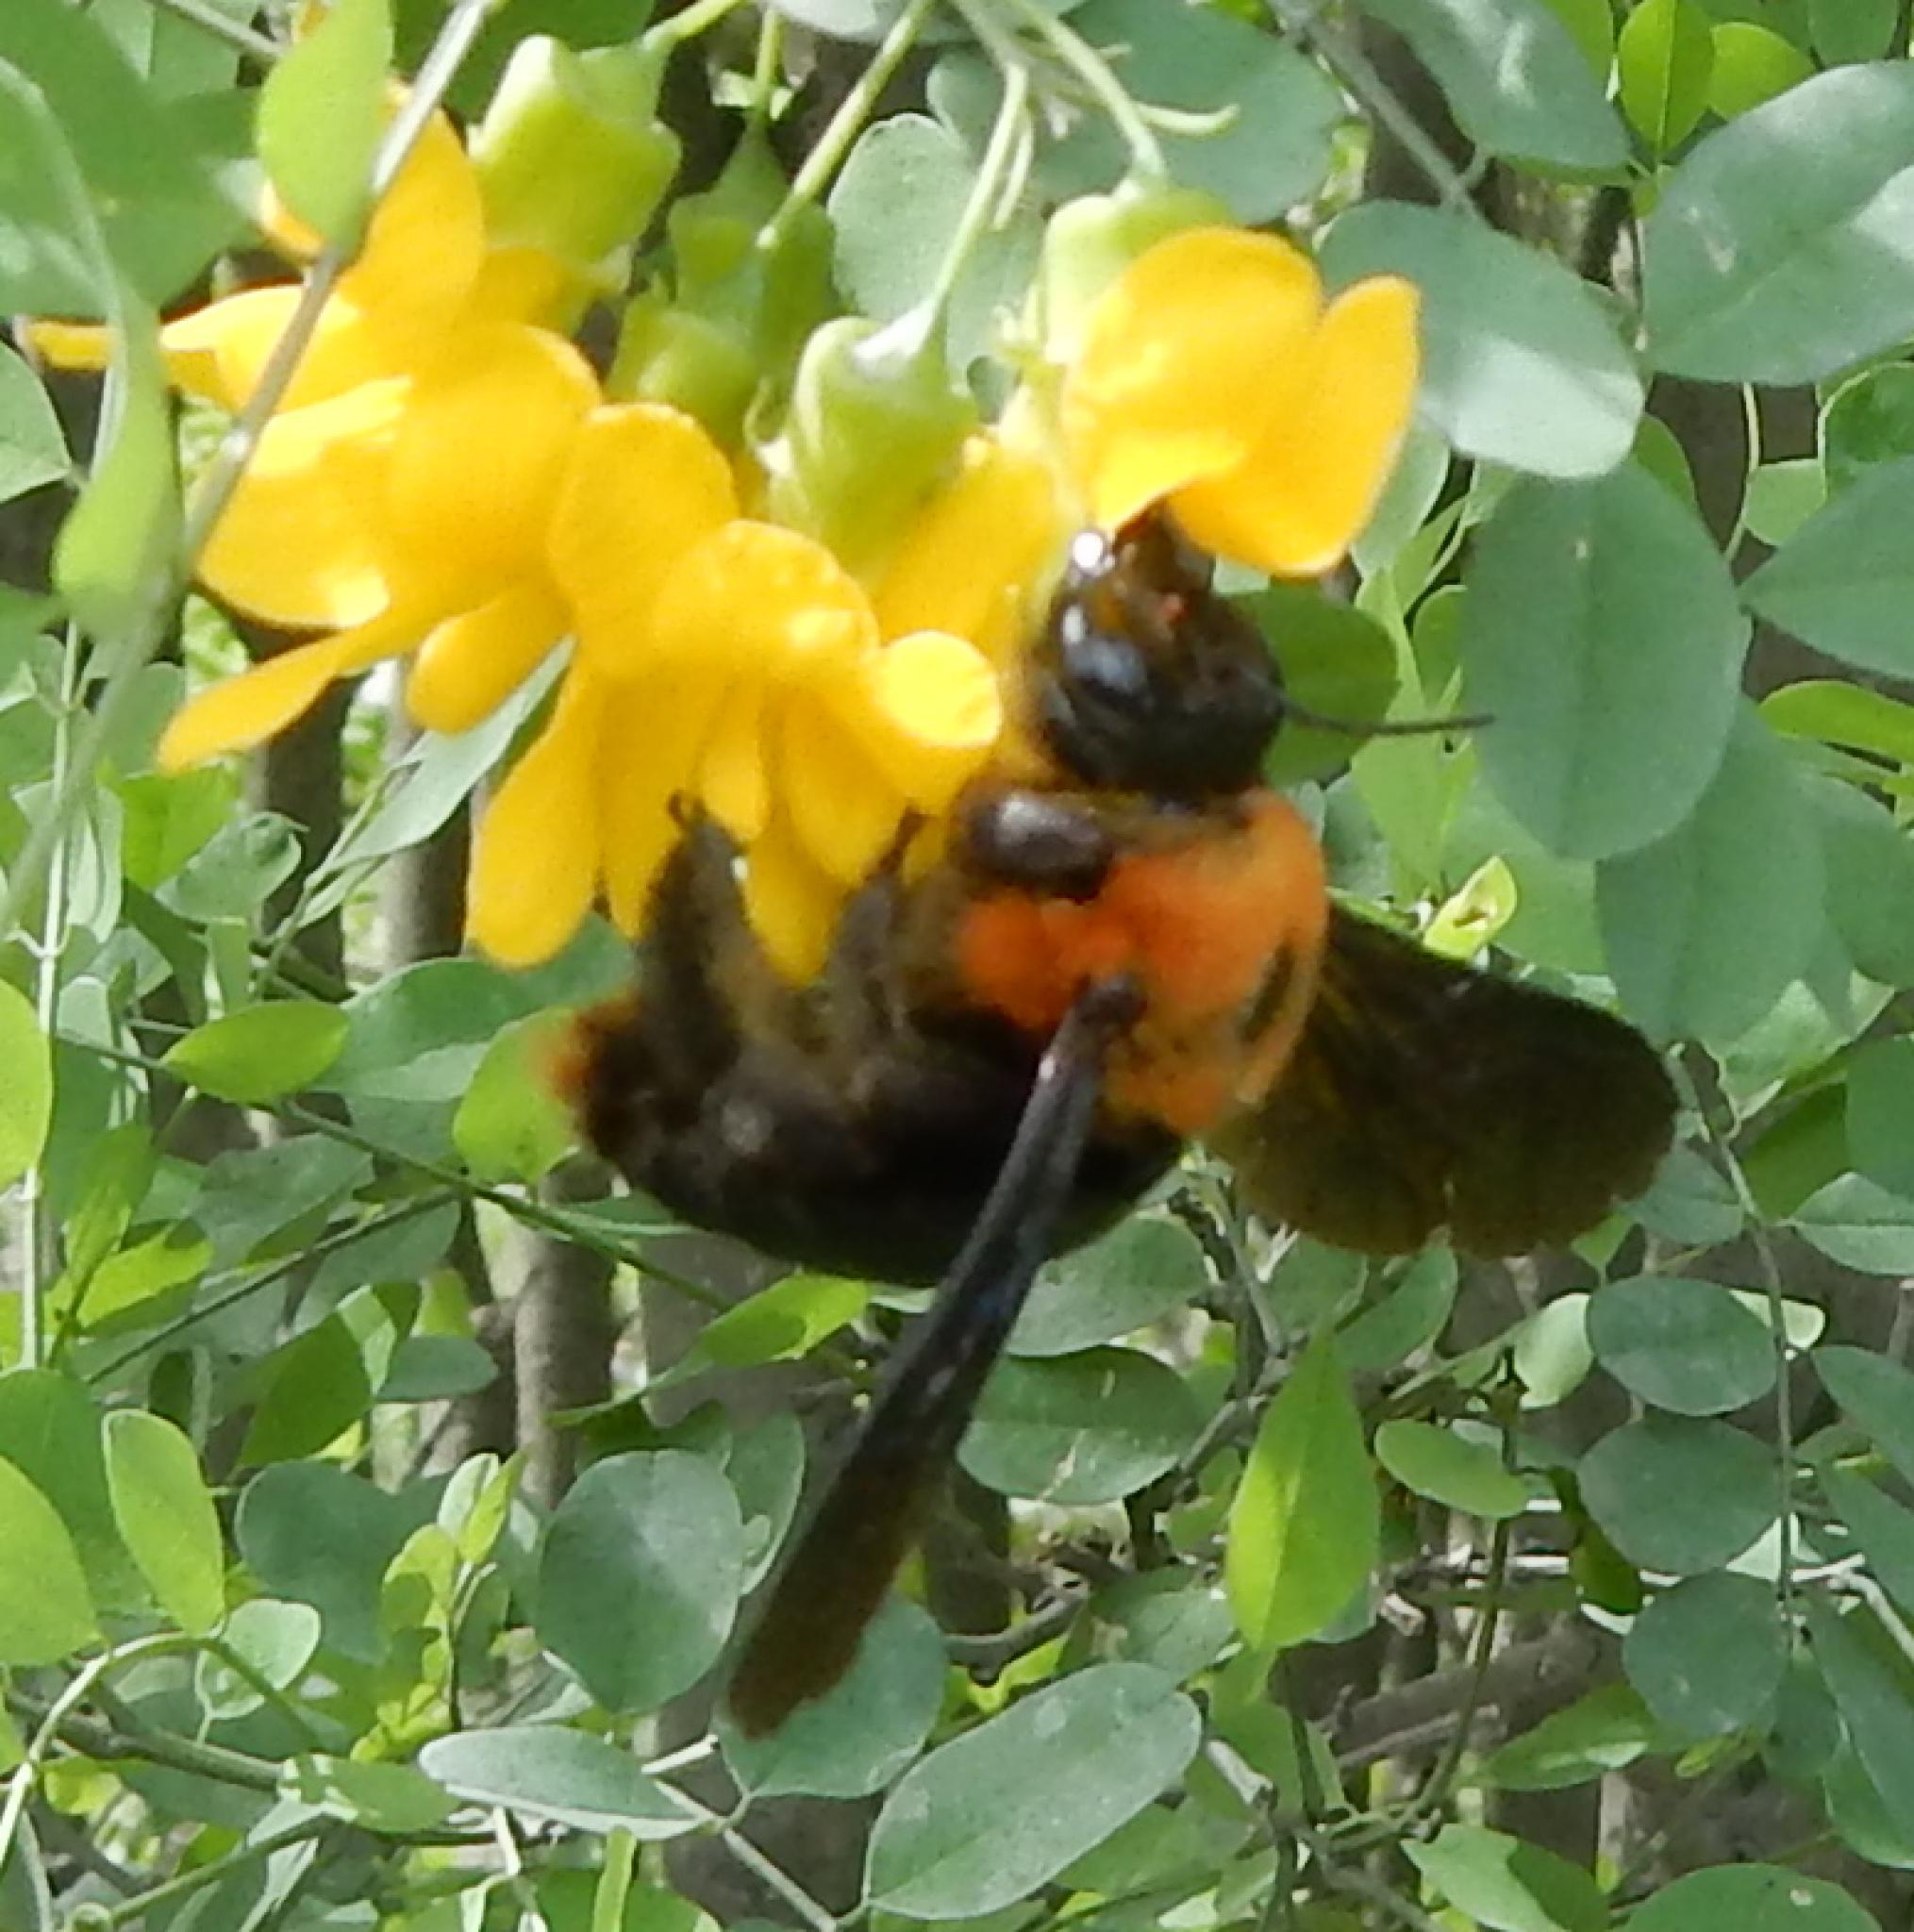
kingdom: Animalia
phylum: Arthropoda
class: Insecta
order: Hymenoptera
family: Apidae
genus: Xylocopa
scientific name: Xylocopa flavorufa
